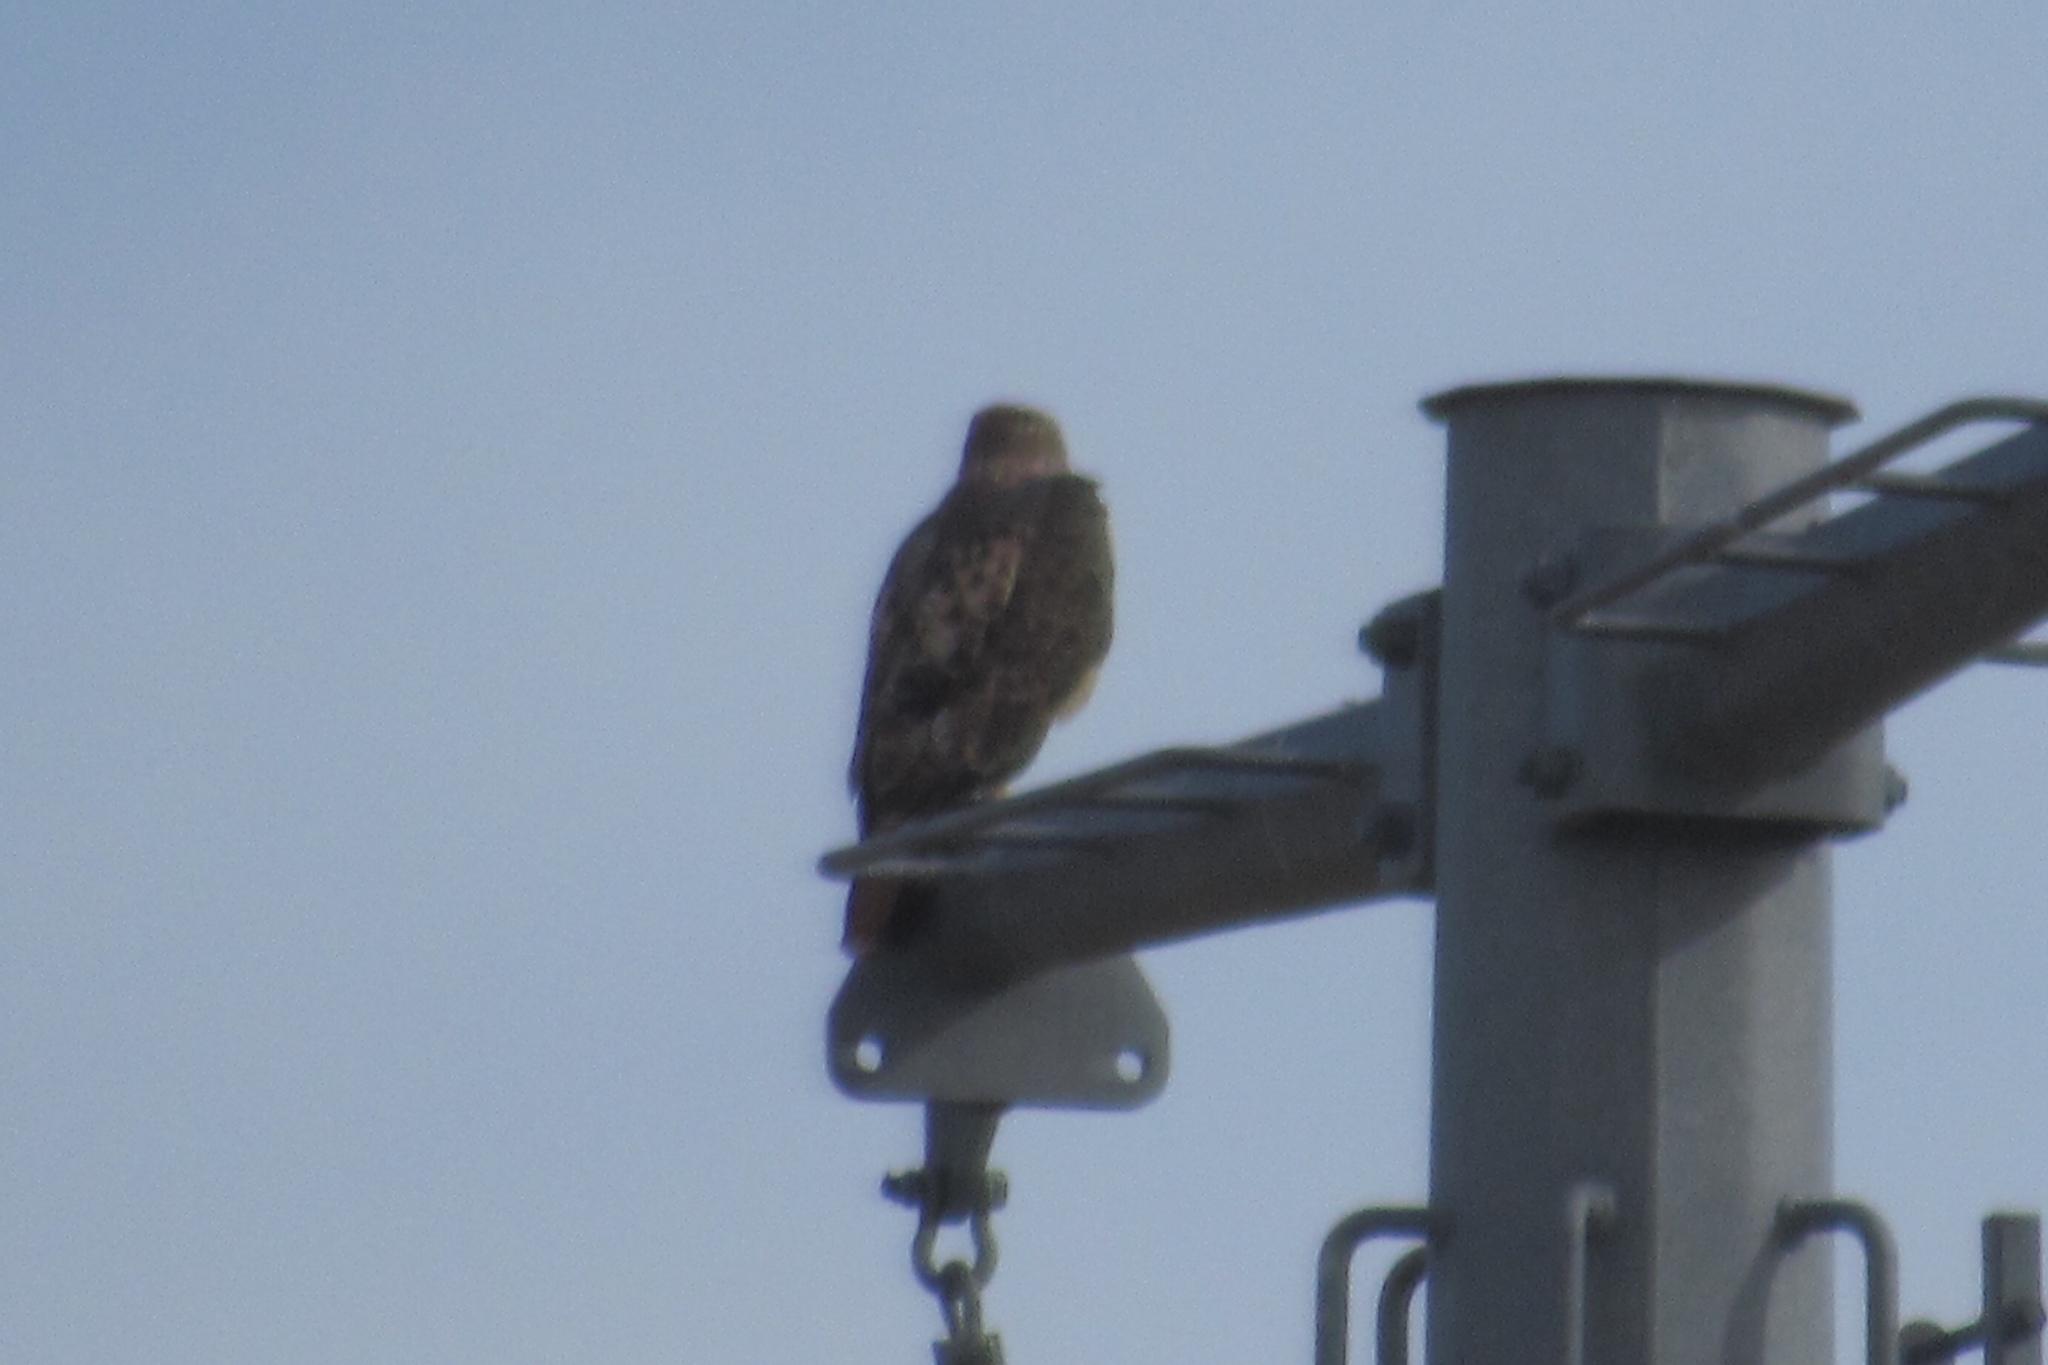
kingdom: Animalia
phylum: Chordata
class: Aves
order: Accipitriformes
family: Accipitridae
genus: Buteo
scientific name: Buteo jamaicensis
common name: Red-tailed hawk
